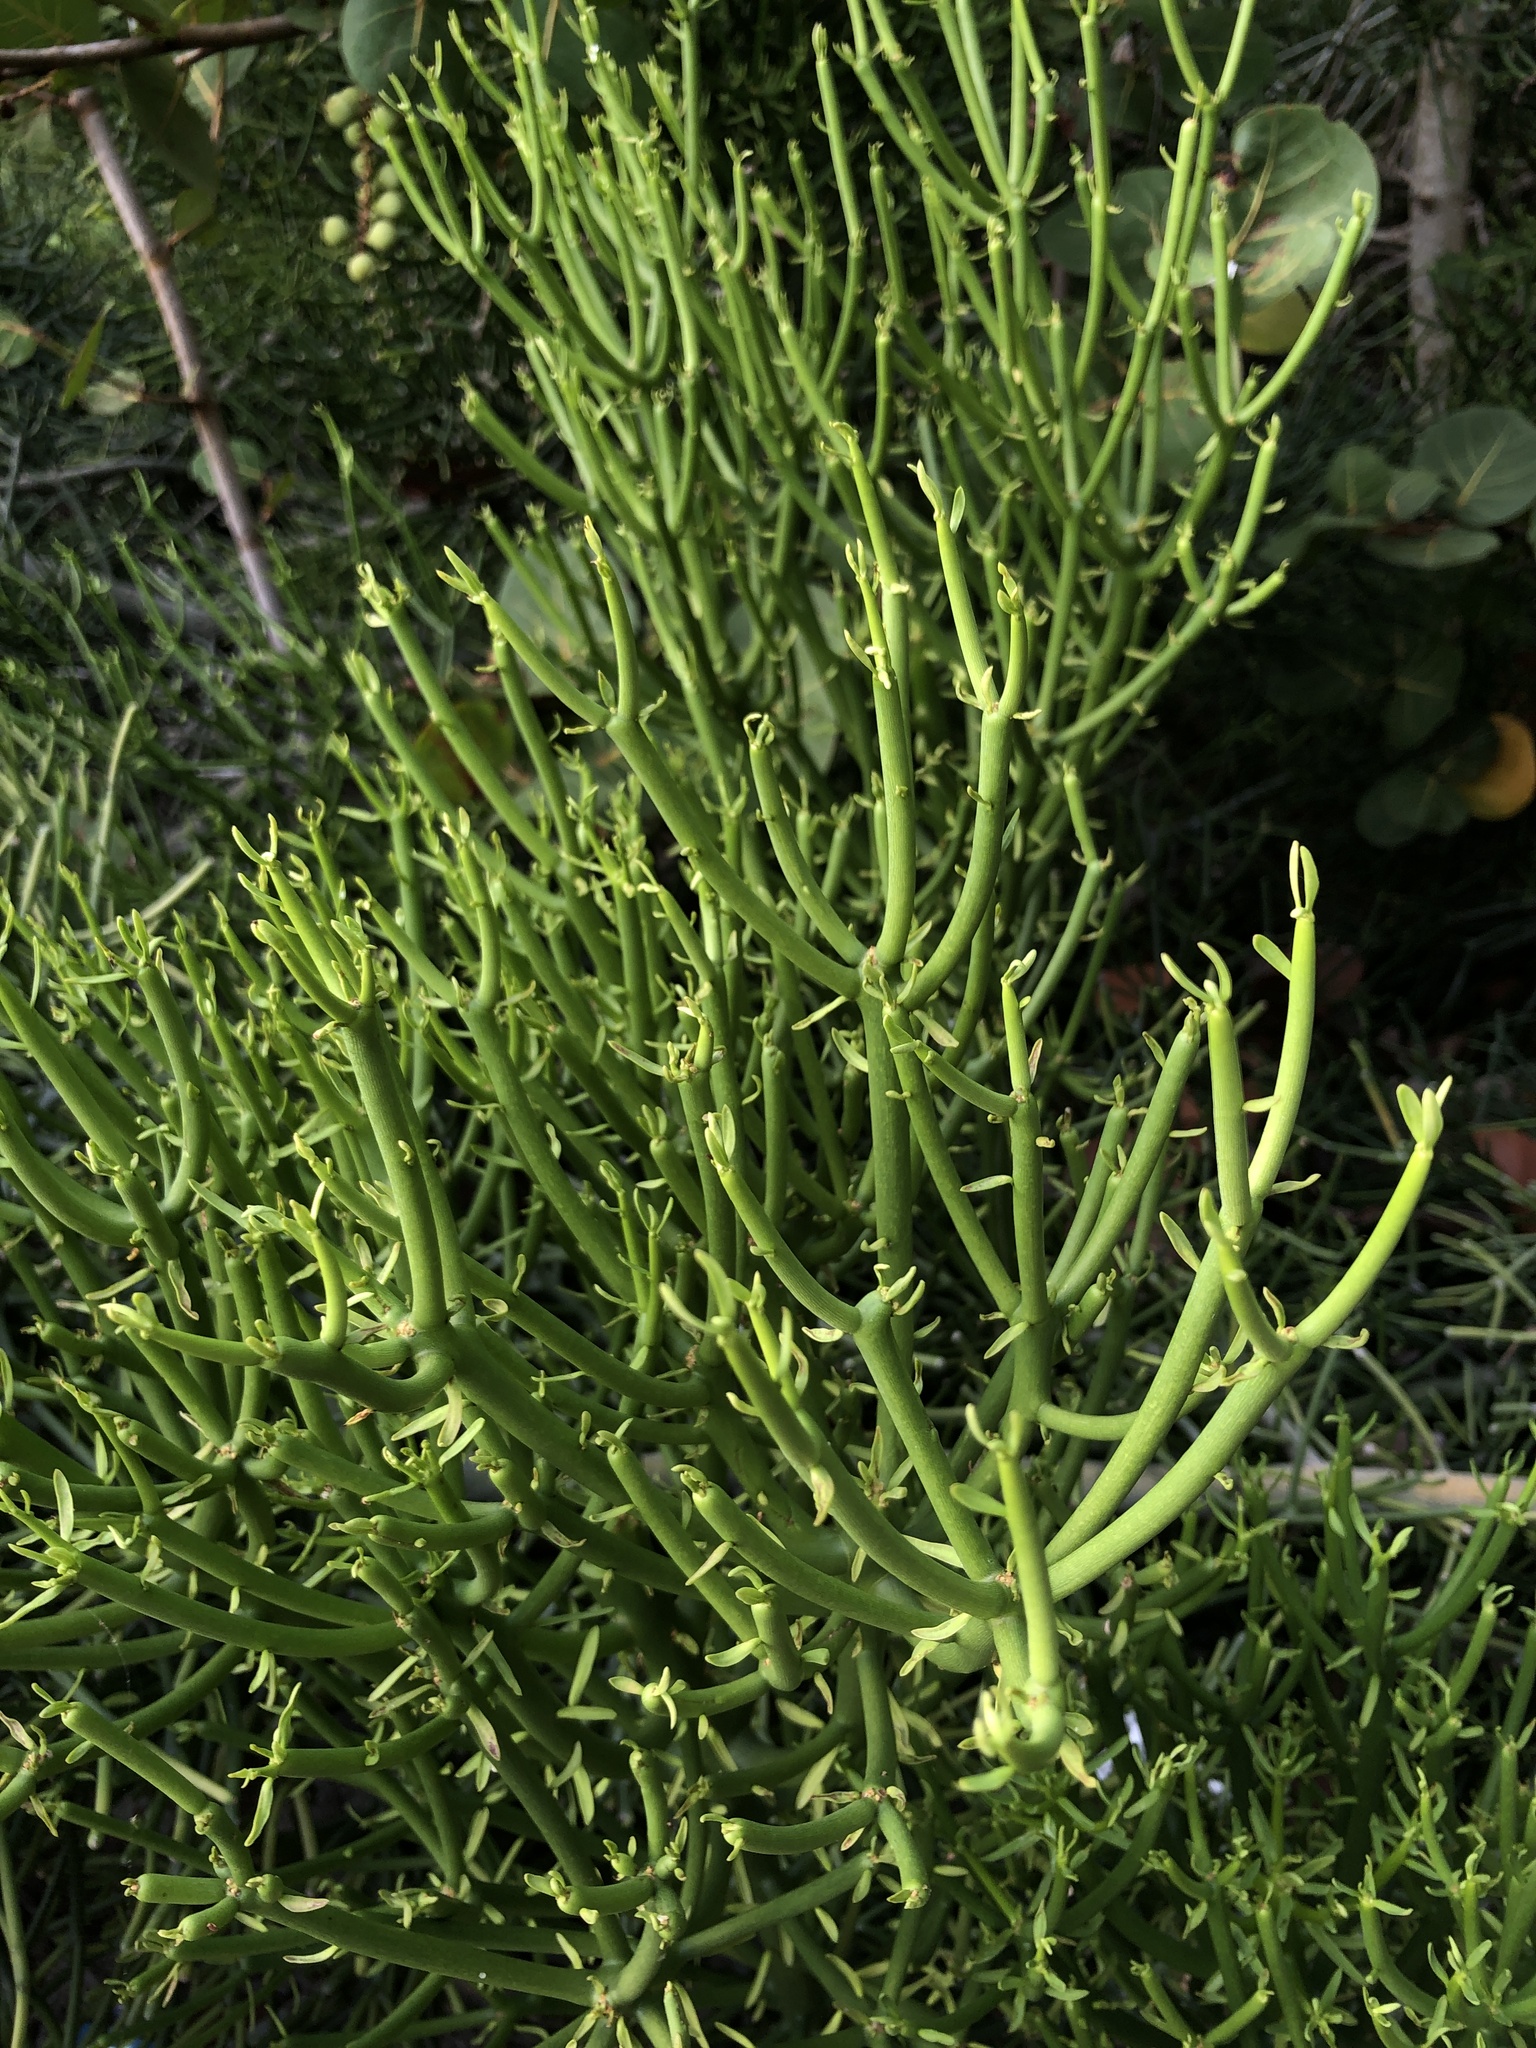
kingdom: Plantae
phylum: Tracheophyta
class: Magnoliopsida
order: Malpighiales
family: Euphorbiaceae
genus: Euphorbia
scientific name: Euphorbia tirucalli
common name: Indiantree spurge
